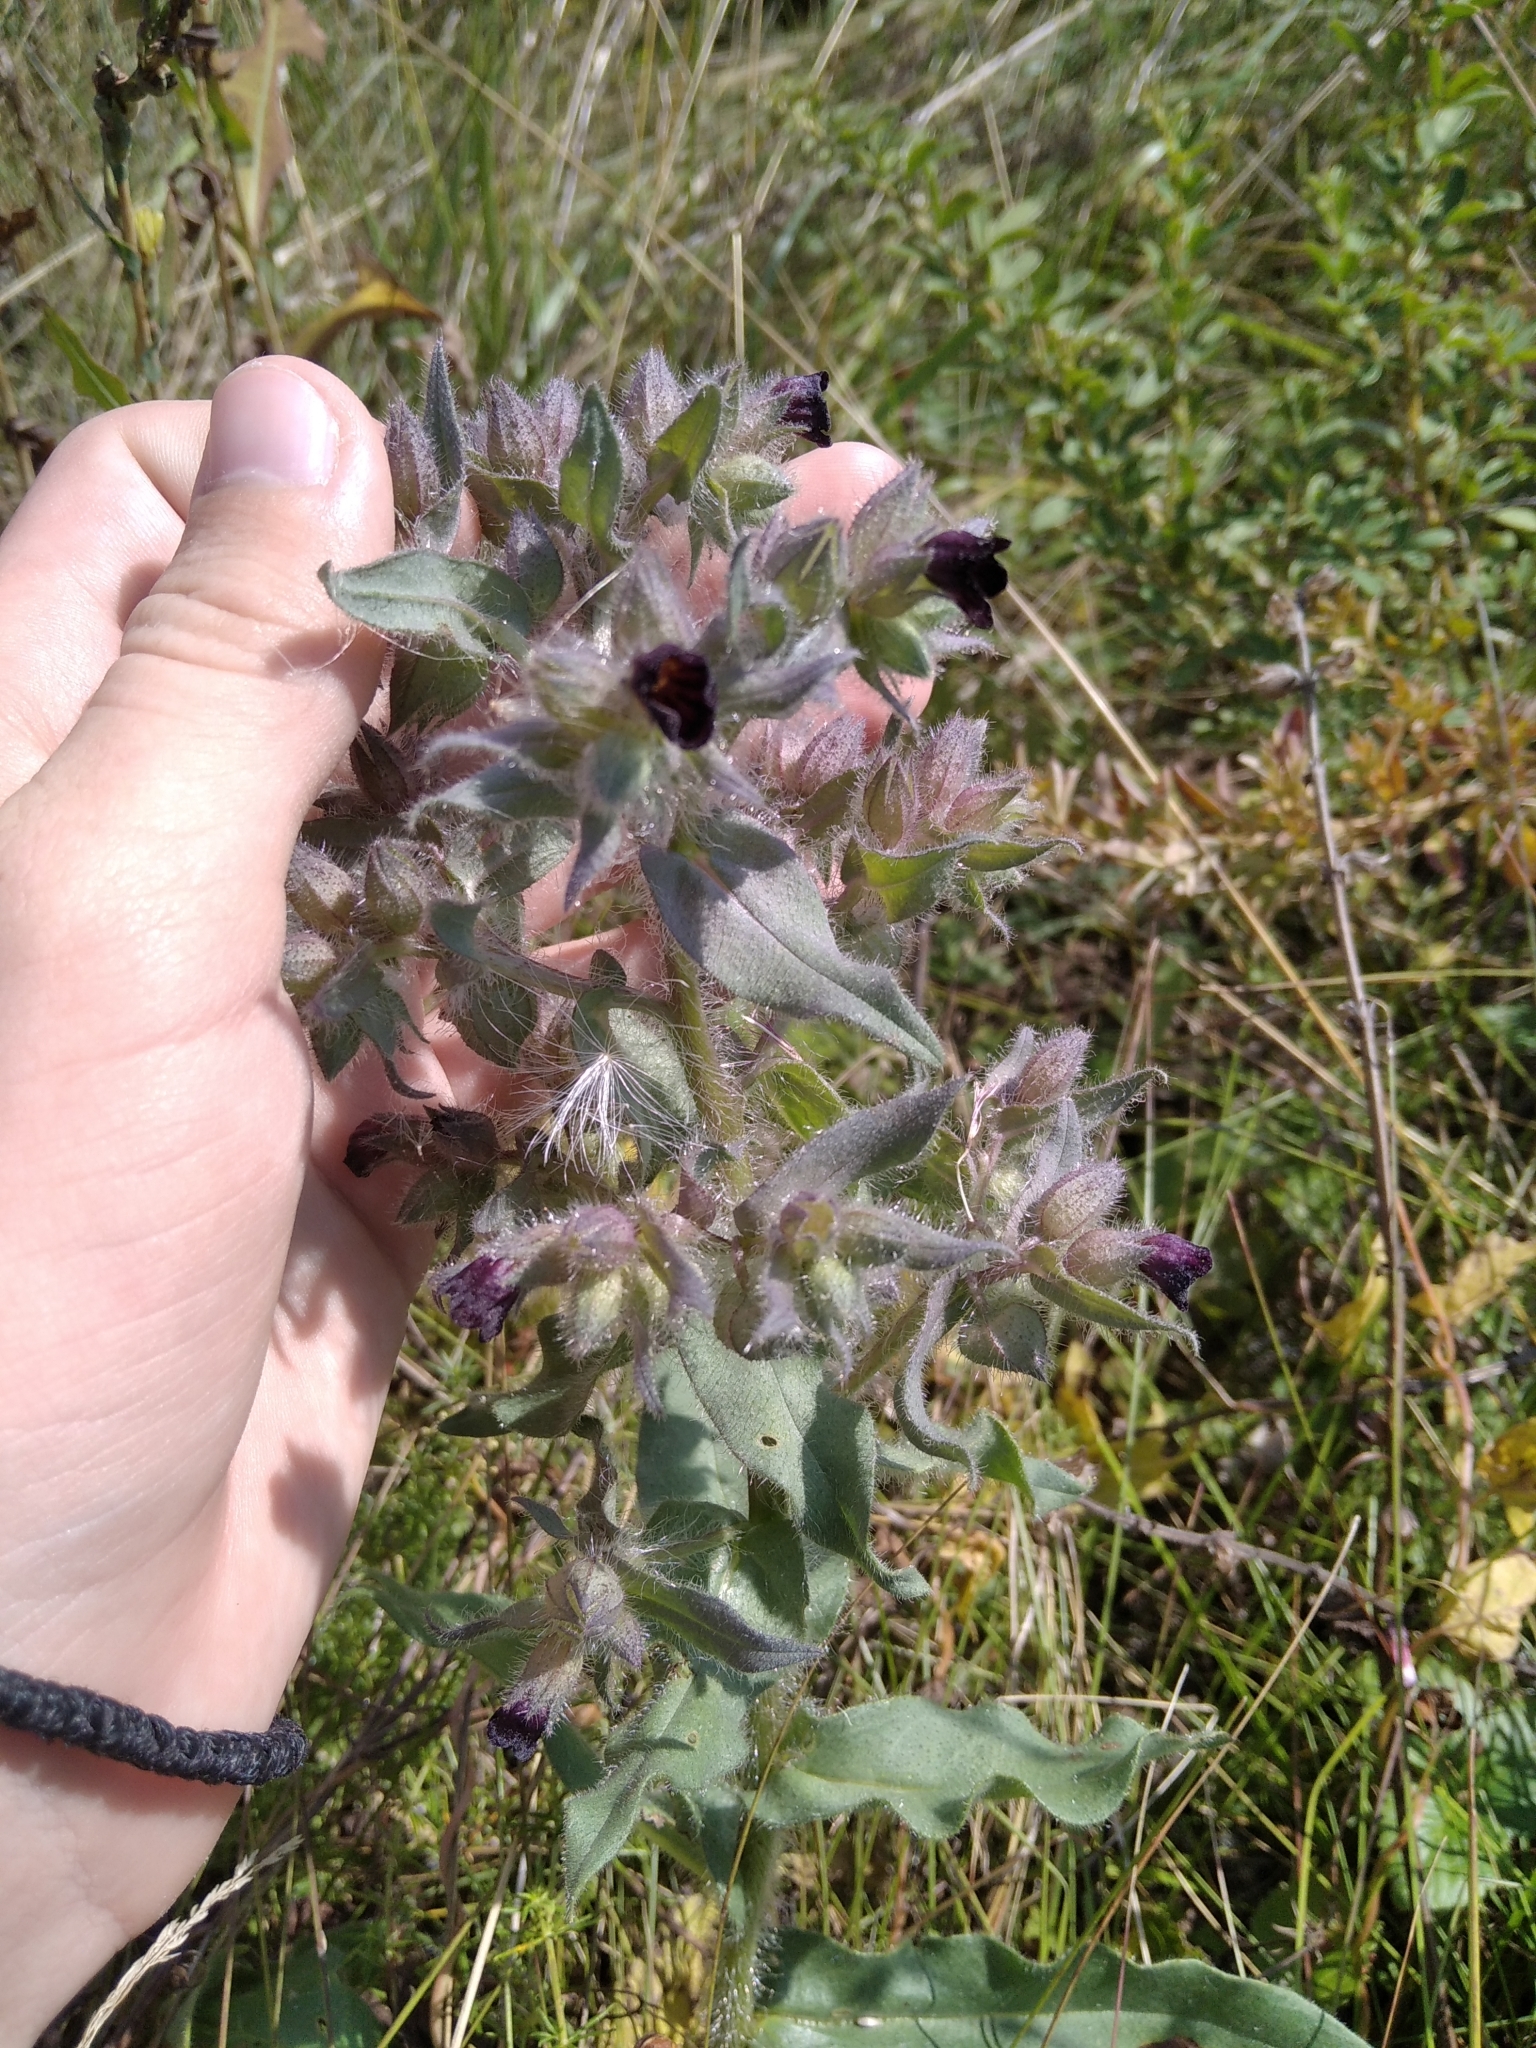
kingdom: Plantae
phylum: Tracheophyta
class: Magnoliopsida
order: Boraginales
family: Boraginaceae
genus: Nonea
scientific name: Nonea pulla
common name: Brown nonea
